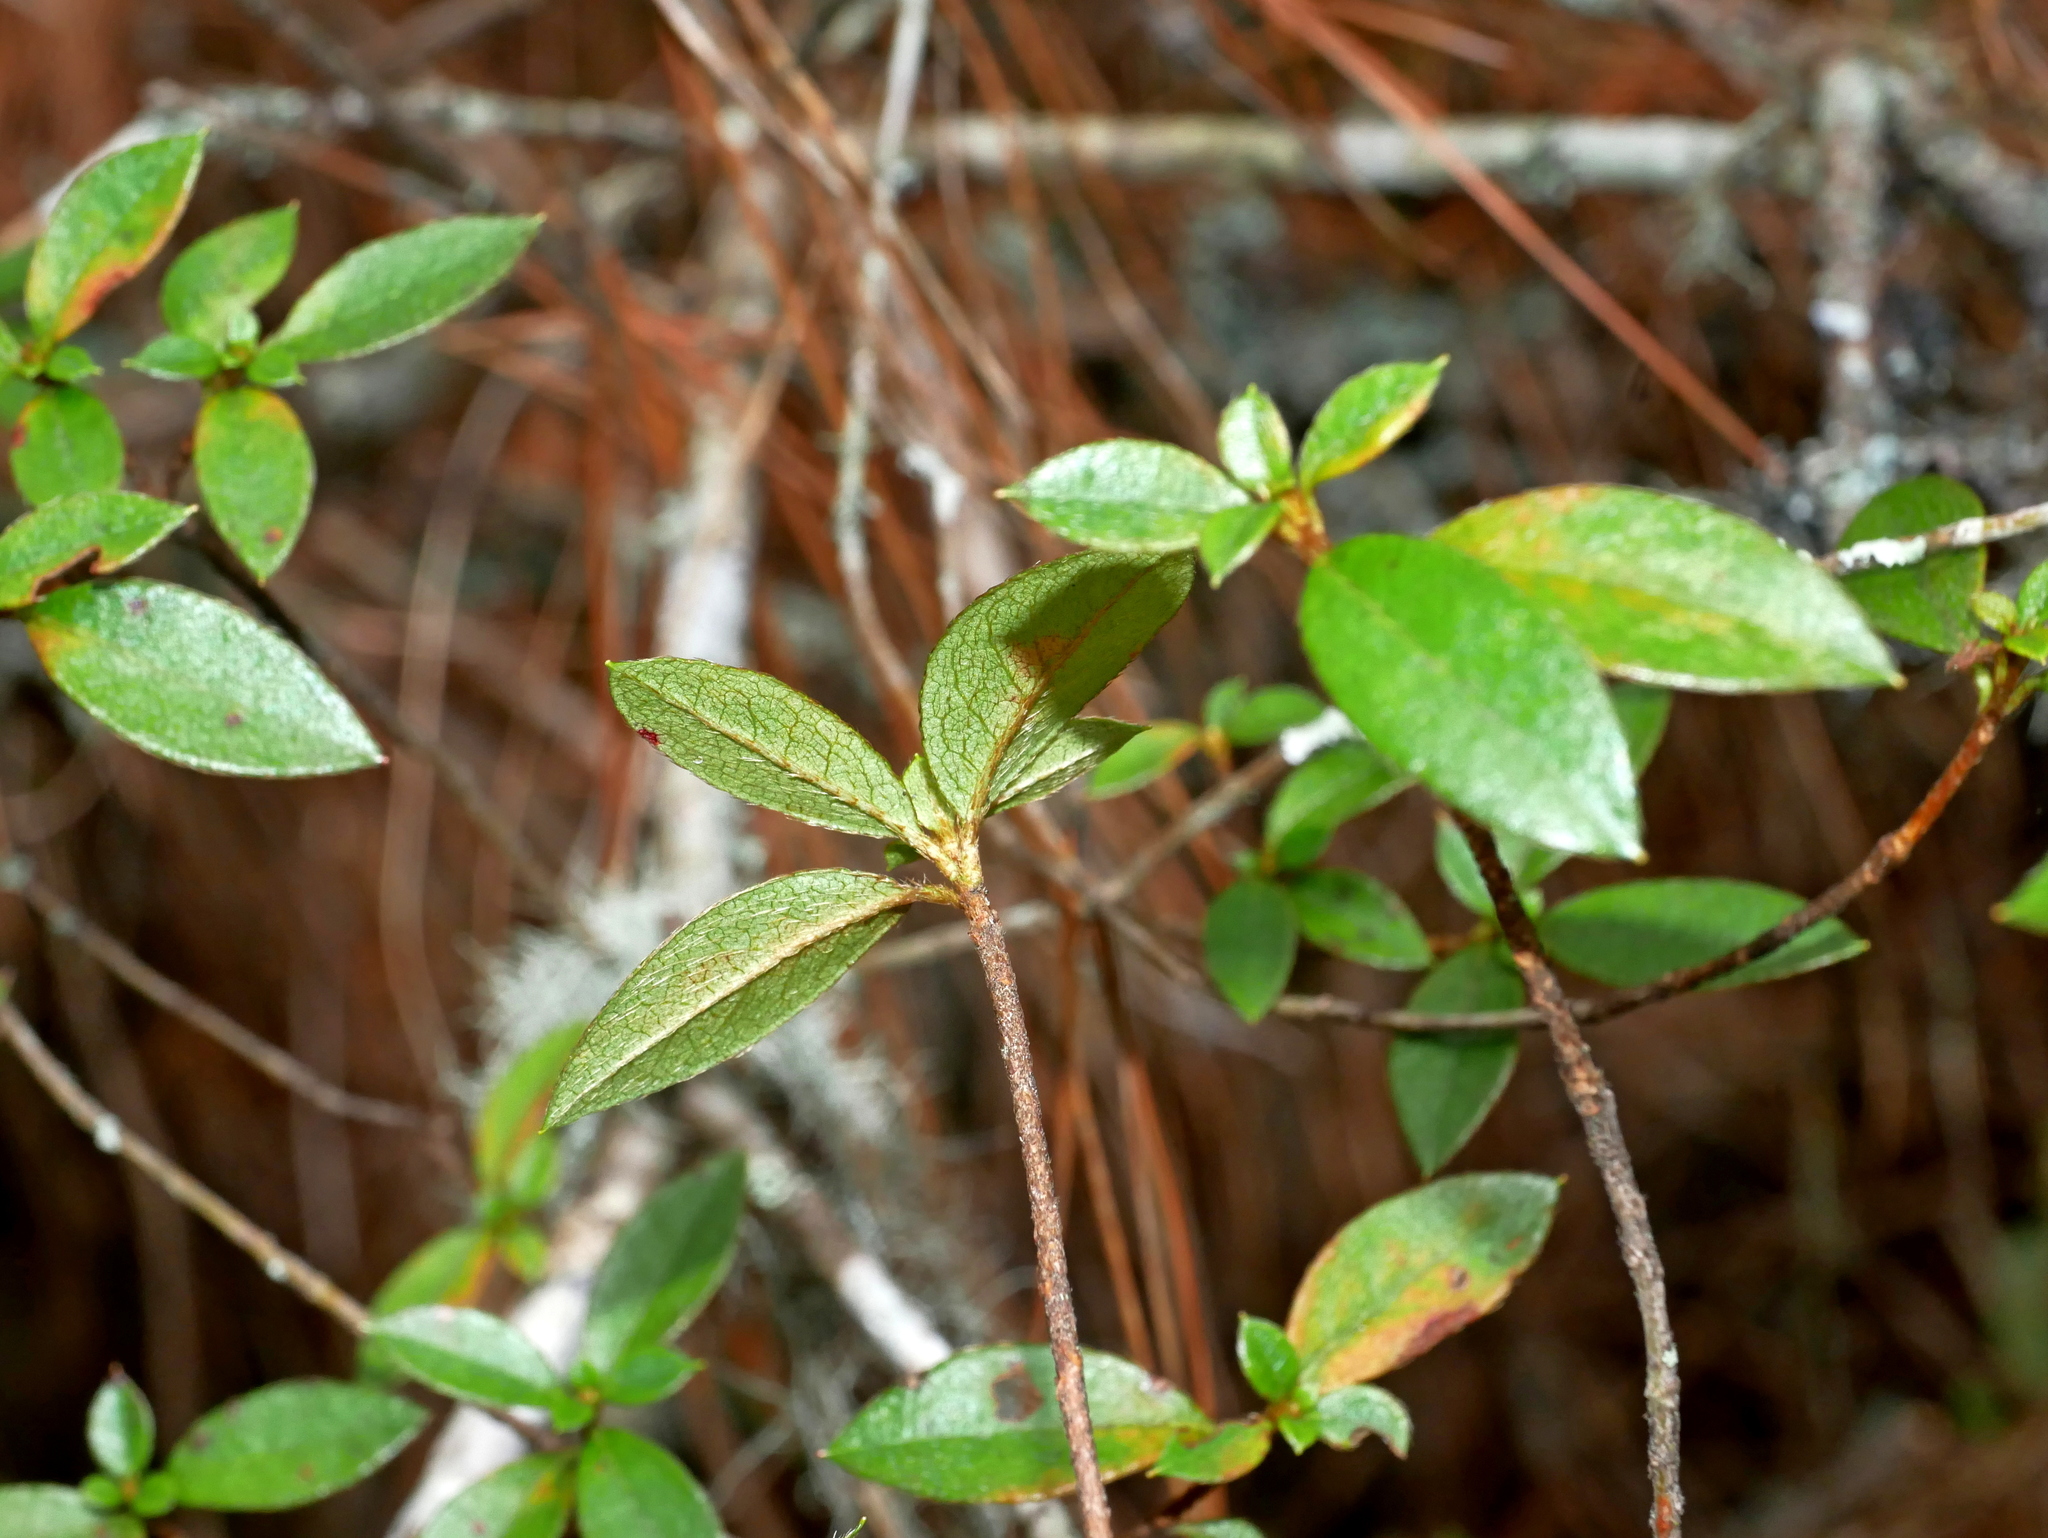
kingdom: Plantae
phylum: Tracheophyta
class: Magnoliopsida
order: Ericales
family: Ericaceae
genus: Rhododendron
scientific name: Rhododendron rubropilosum
